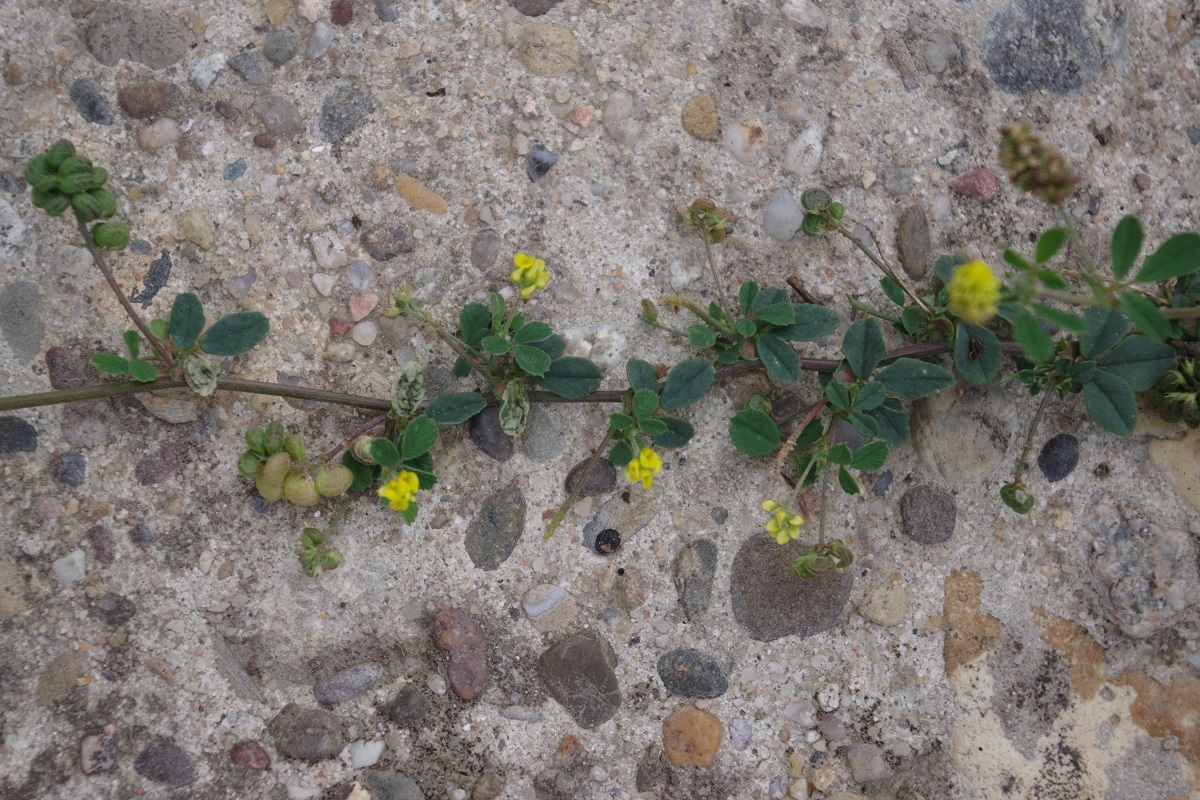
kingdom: Plantae
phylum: Tracheophyta
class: Magnoliopsida
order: Fabales
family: Fabaceae
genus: Medicago
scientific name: Medicago lupulina
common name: Black medick
